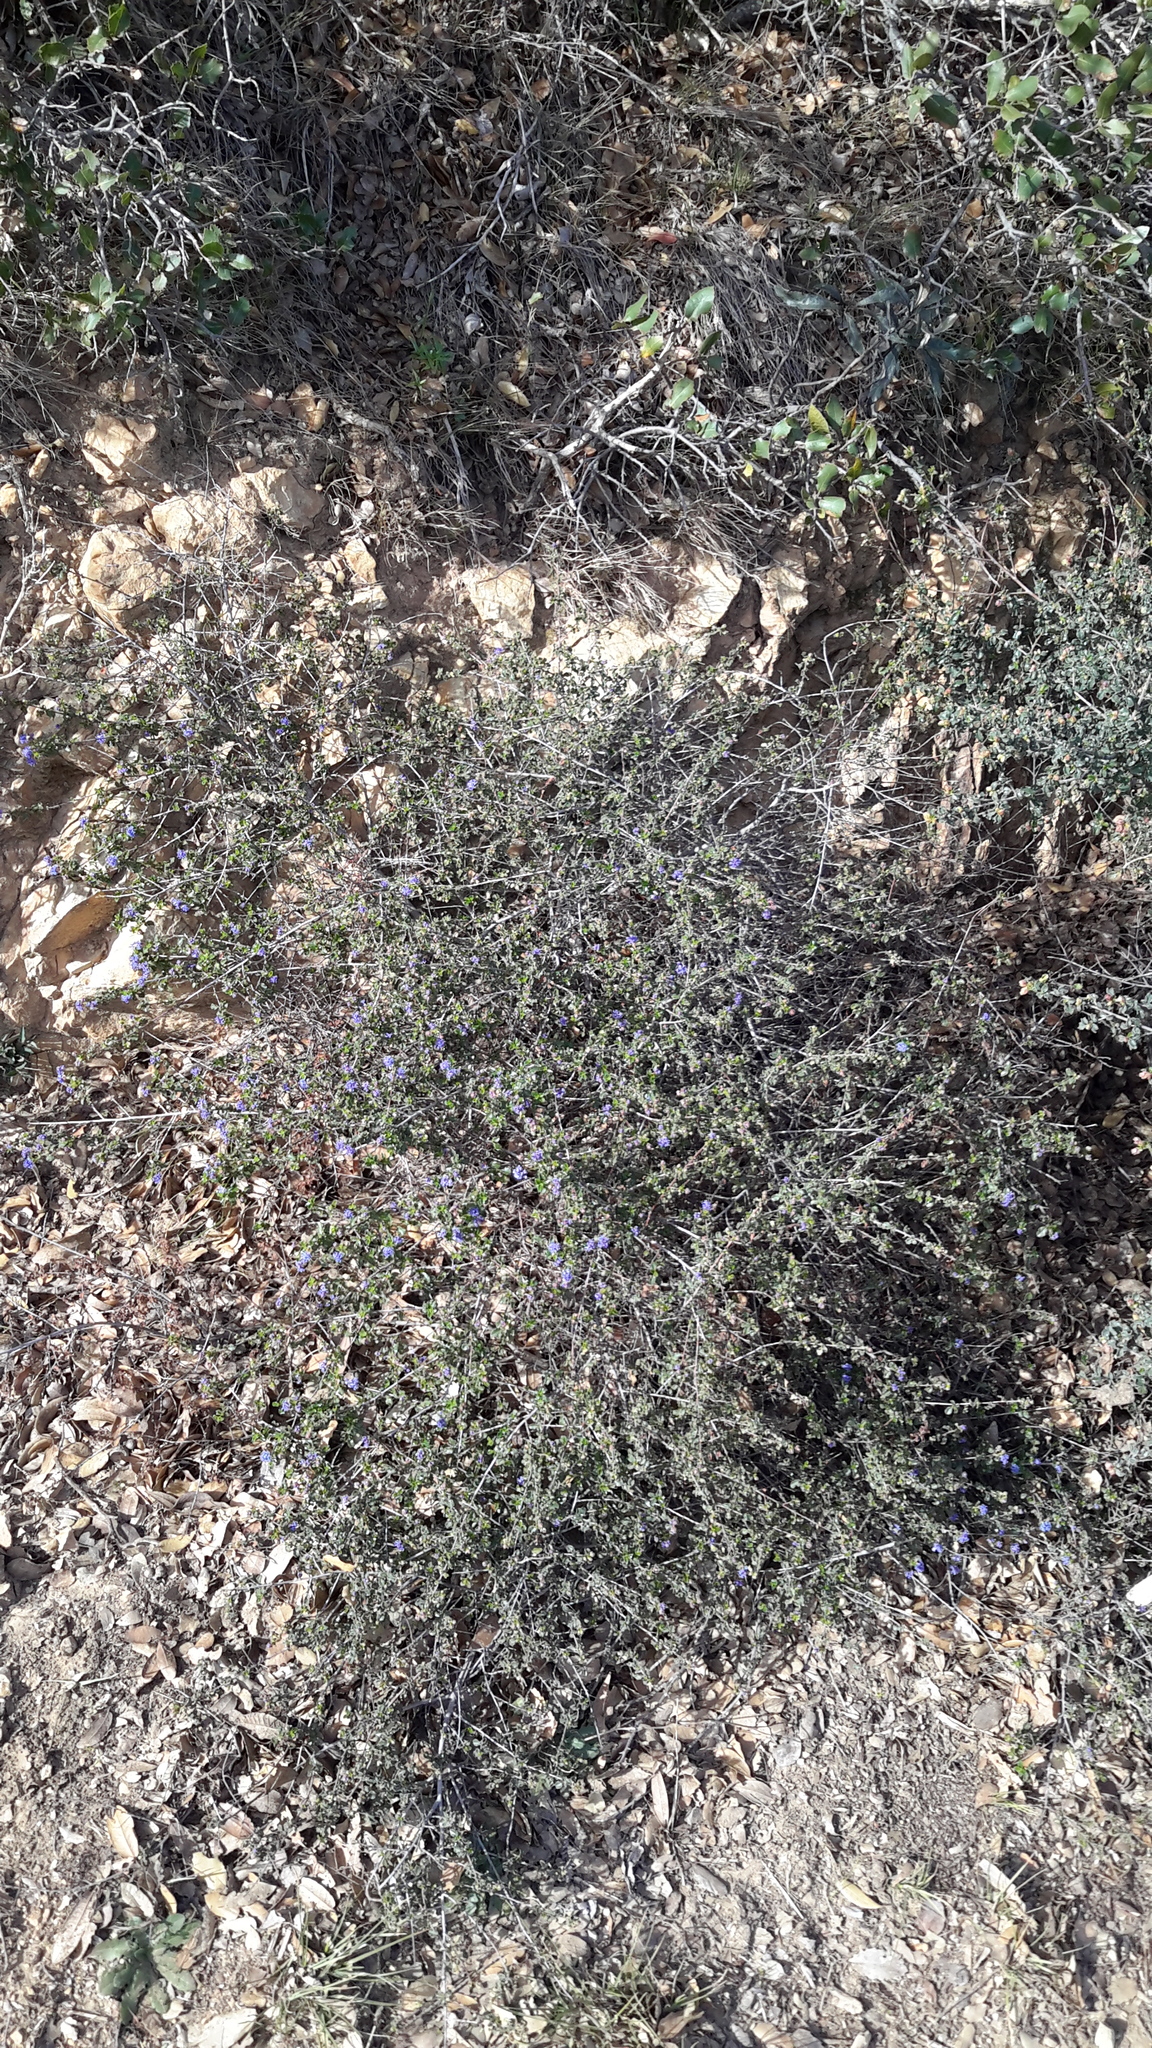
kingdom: Plantae
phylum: Tracheophyta
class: Magnoliopsida
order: Rosales
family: Rhamnaceae
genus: Ceanothus
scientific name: Ceanothus foliosus
